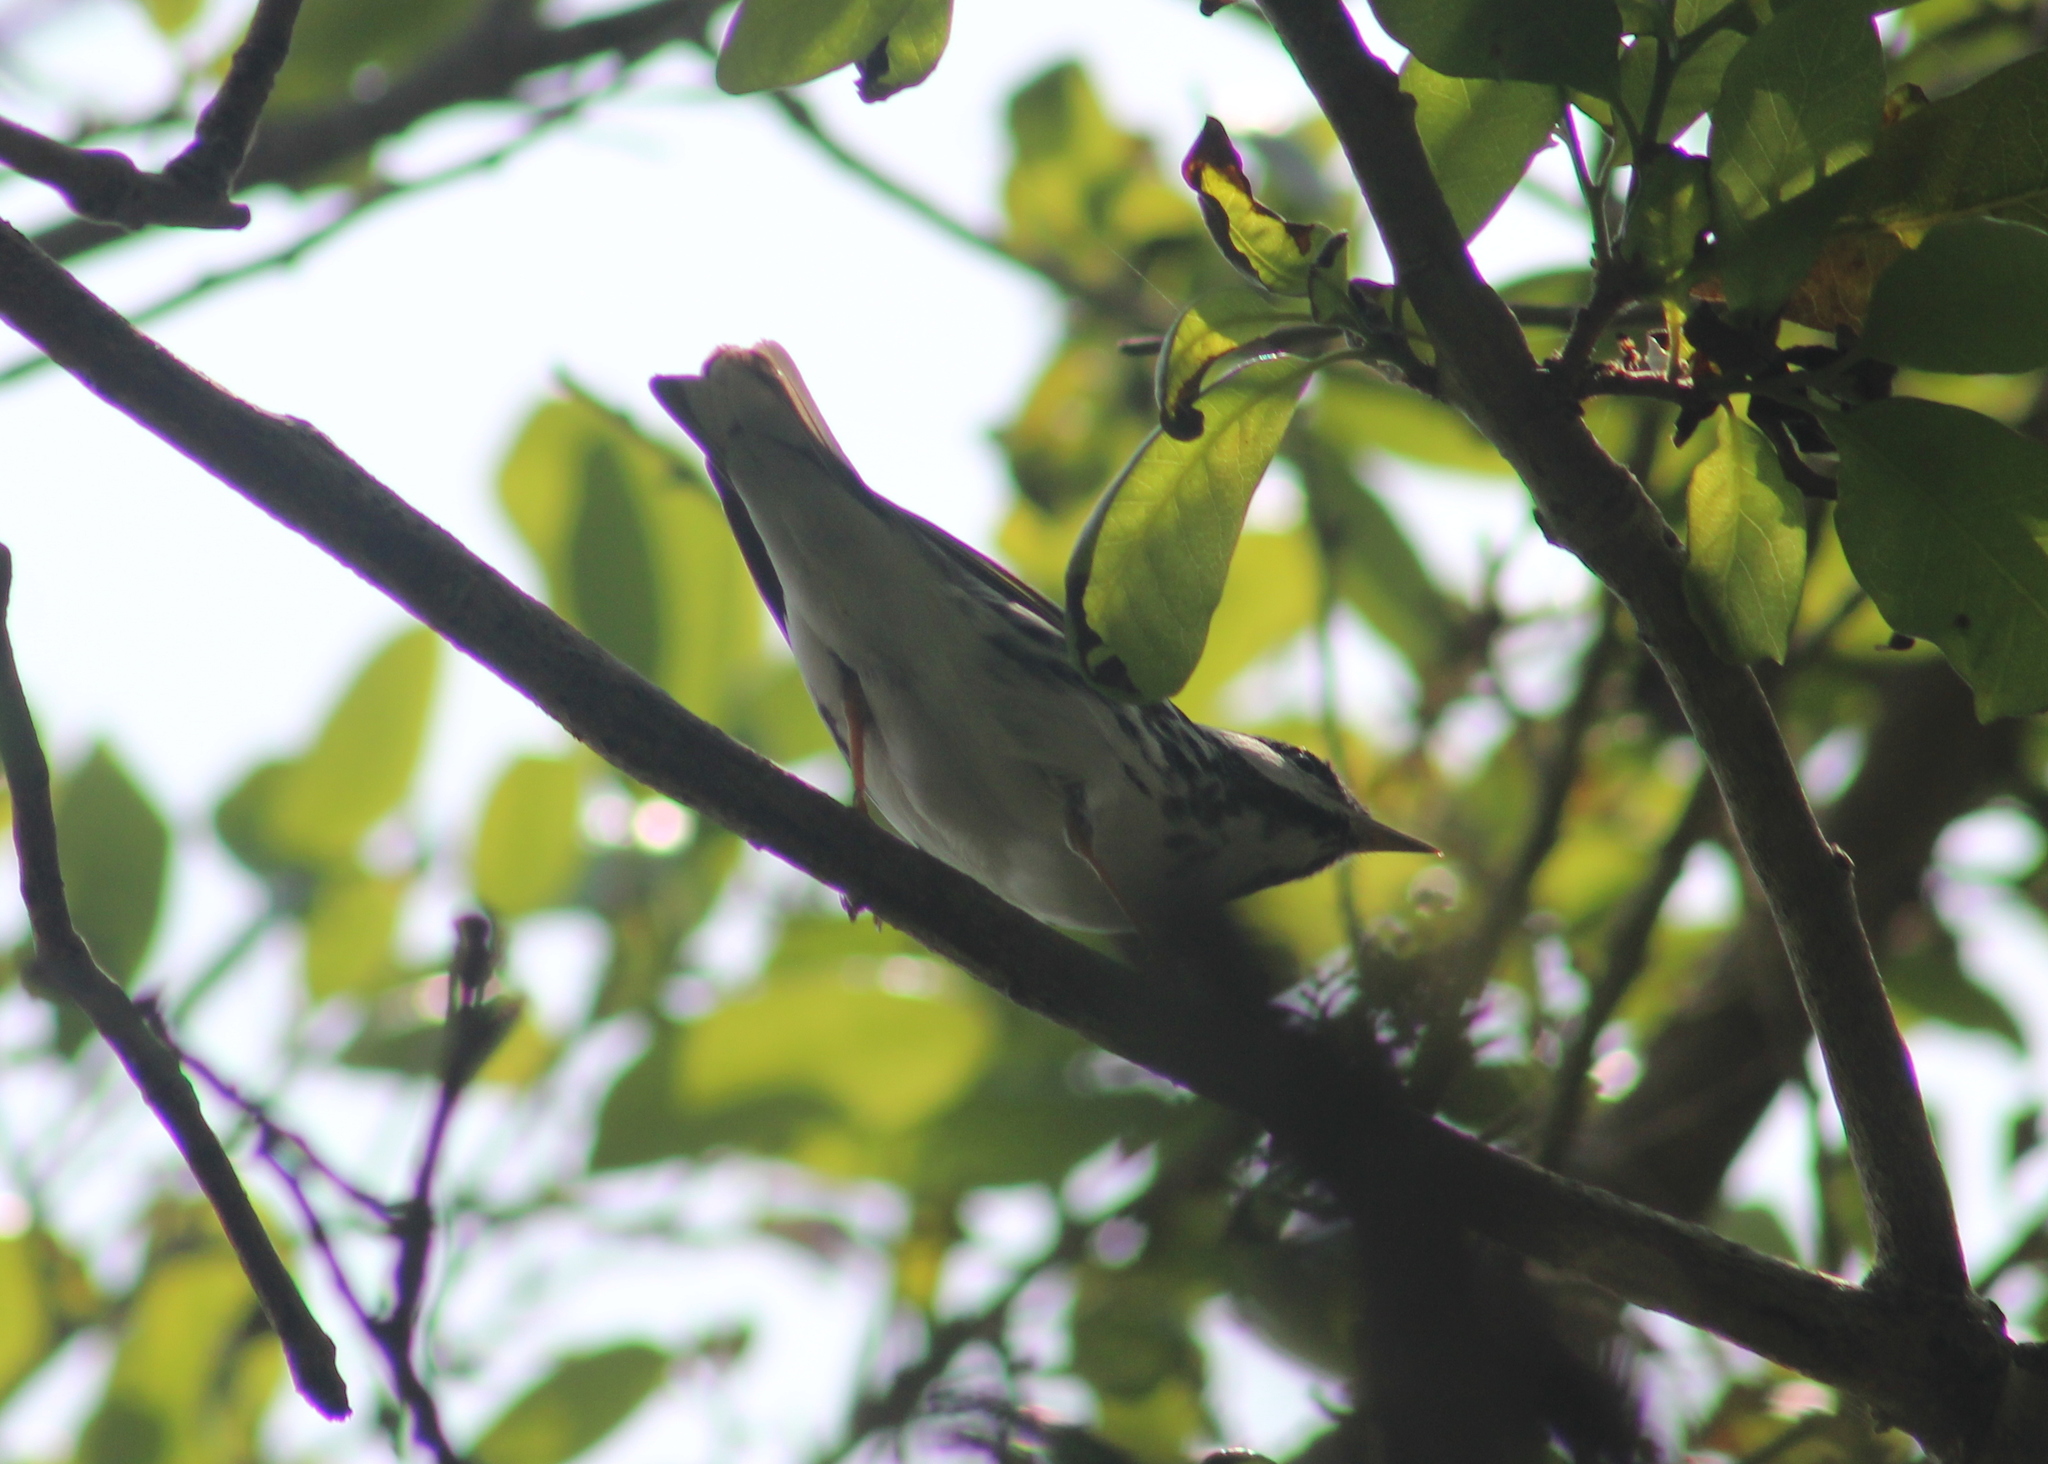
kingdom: Animalia
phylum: Chordata
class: Aves
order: Passeriformes
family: Parulidae
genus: Setophaga
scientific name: Setophaga striata
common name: Blackpoll warbler
